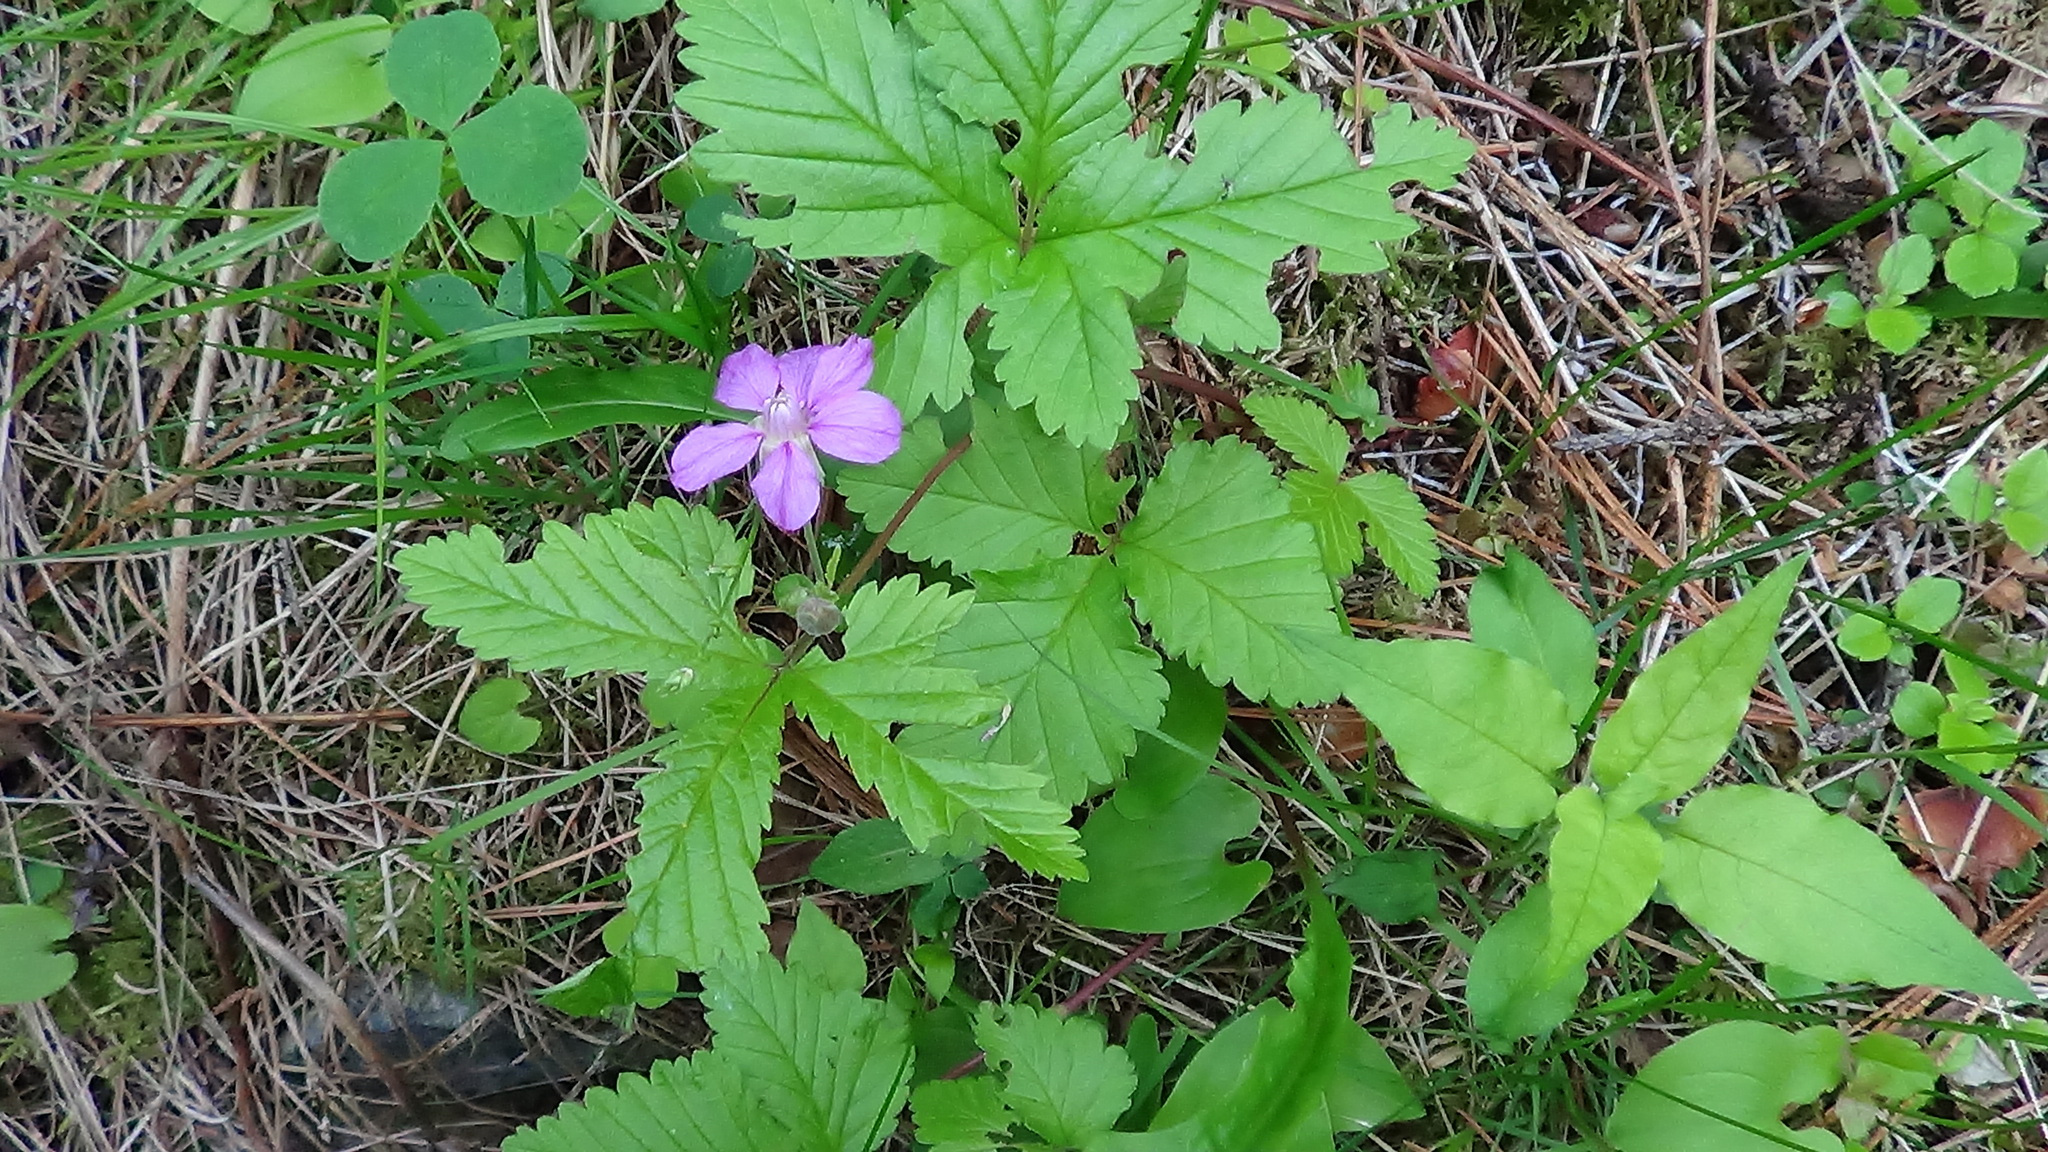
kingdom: Plantae
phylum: Tracheophyta
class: Magnoliopsida
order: Rosales
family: Rosaceae
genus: Rubus
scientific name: Rubus arcticus
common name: Arctic bramble
